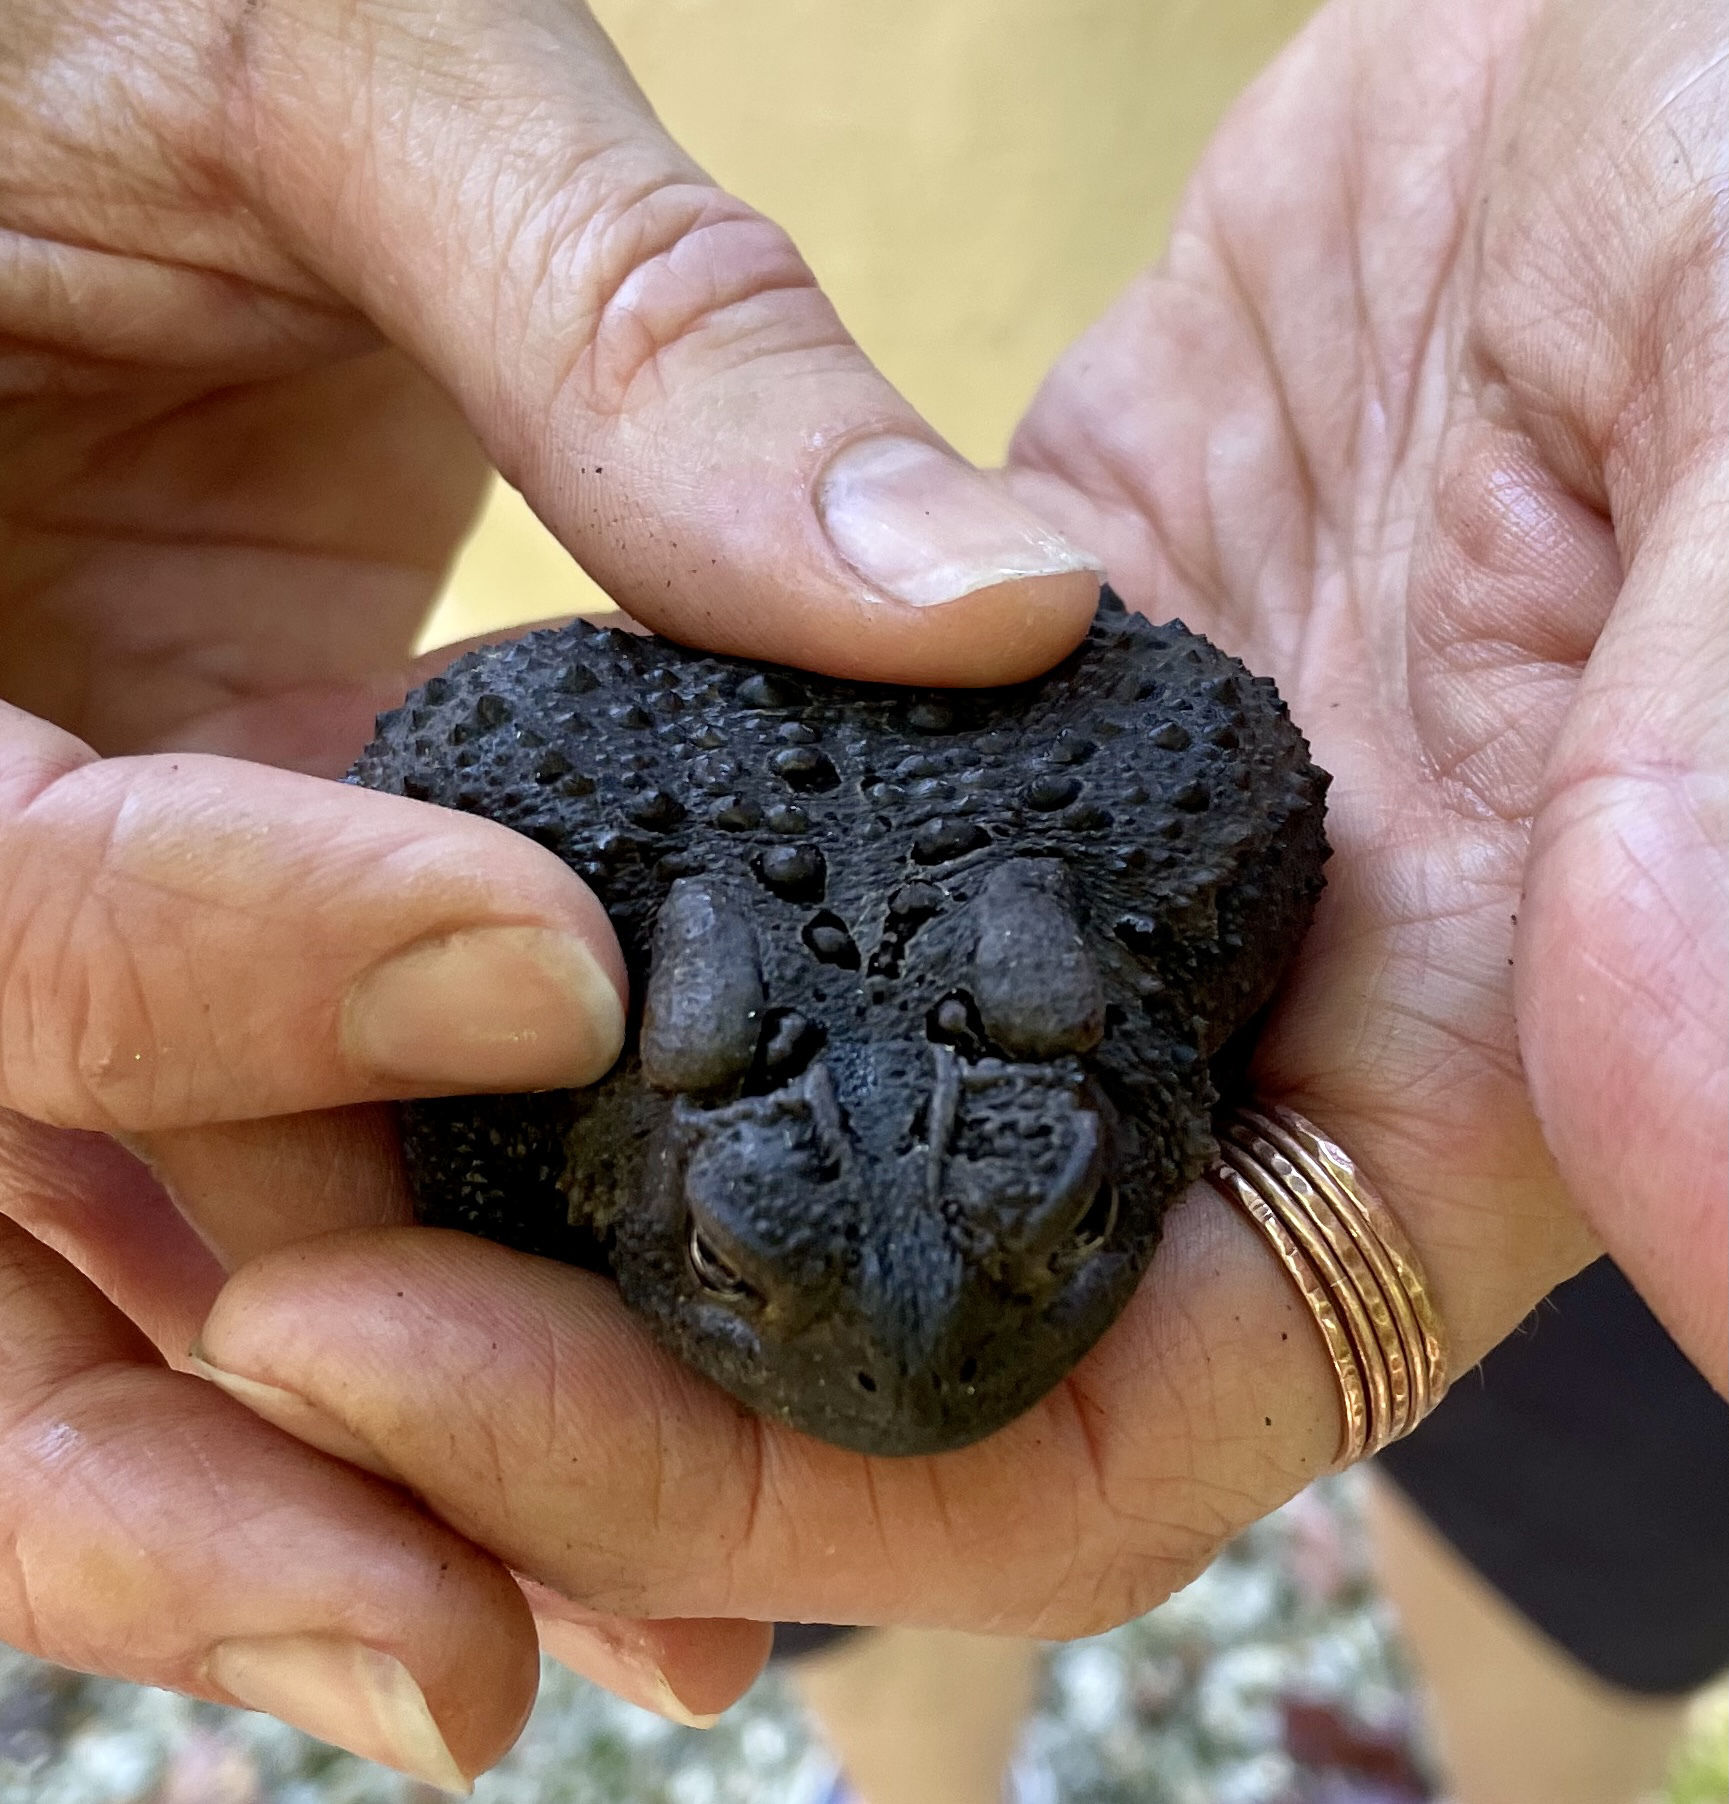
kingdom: Animalia
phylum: Chordata
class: Amphibia
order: Anura
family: Bufonidae
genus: Anaxyrus
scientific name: Anaxyrus americanus
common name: American toad
